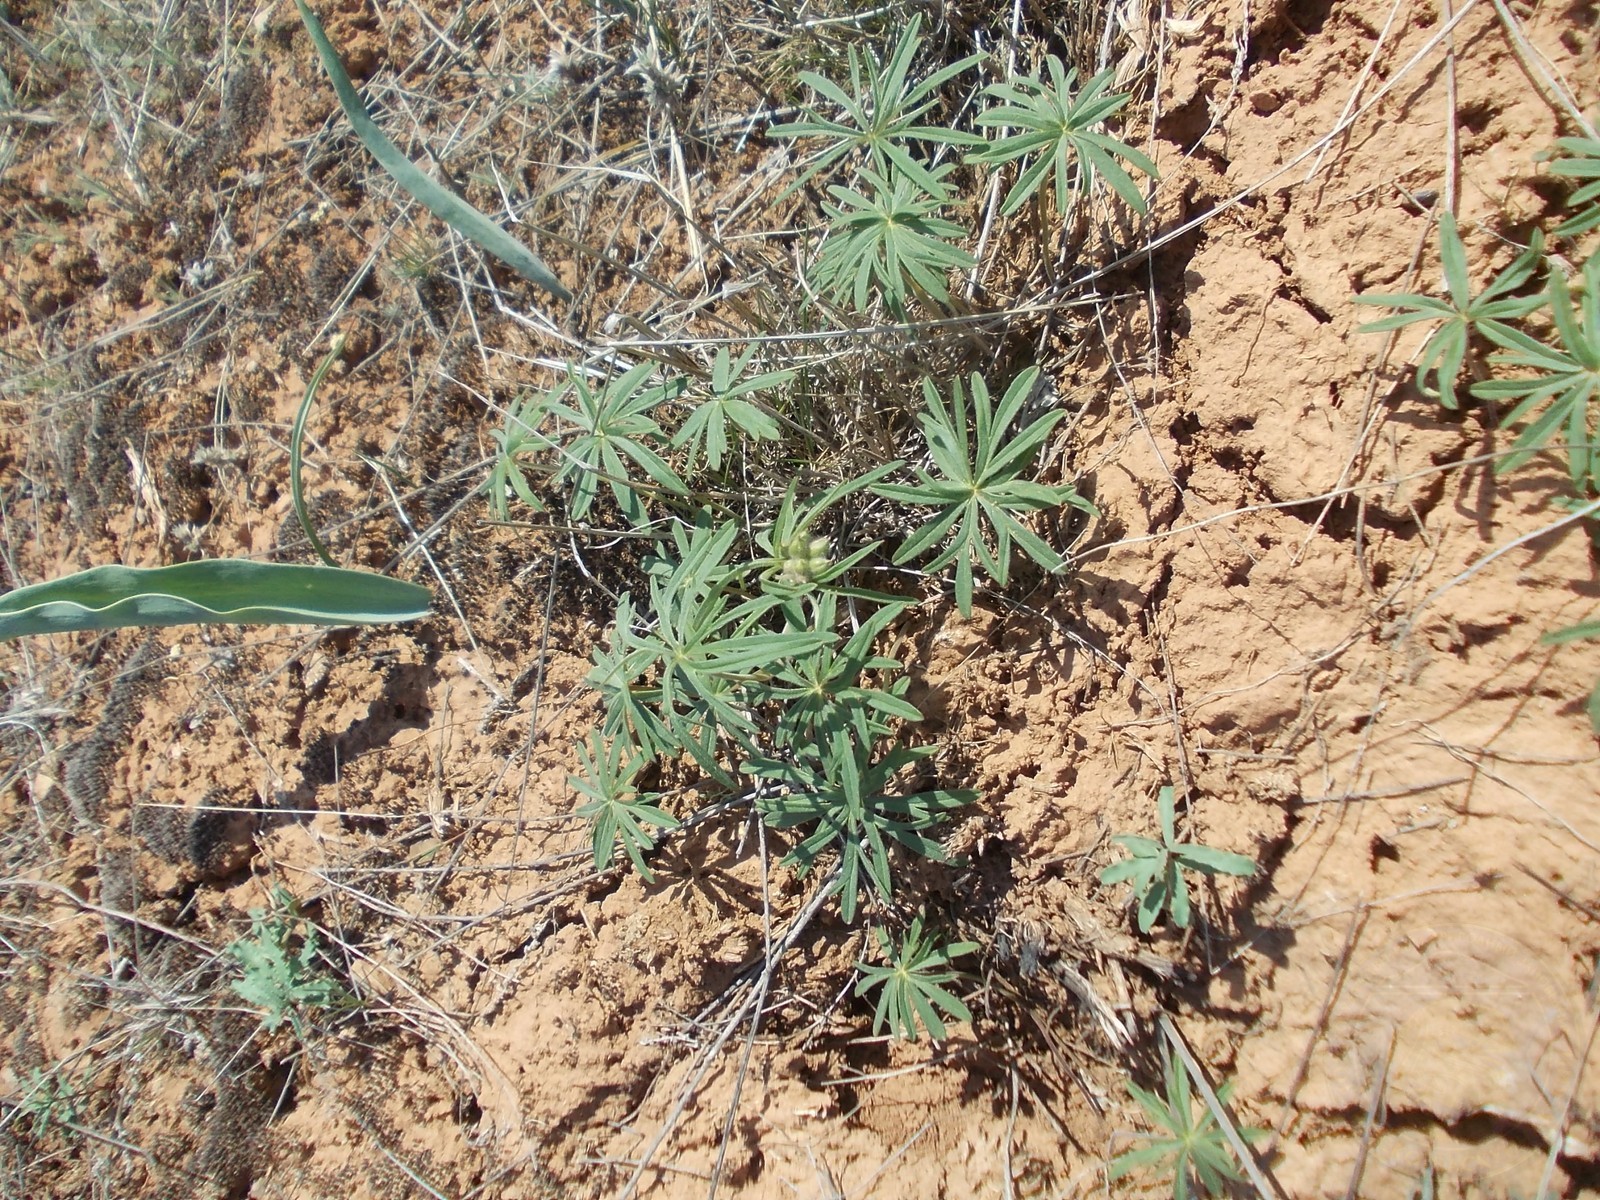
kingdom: Plantae
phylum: Tracheophyta
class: Magnoliopsida
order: Geraniales
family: Geraniaceae
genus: Geranium
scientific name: Geranium linearilobum
